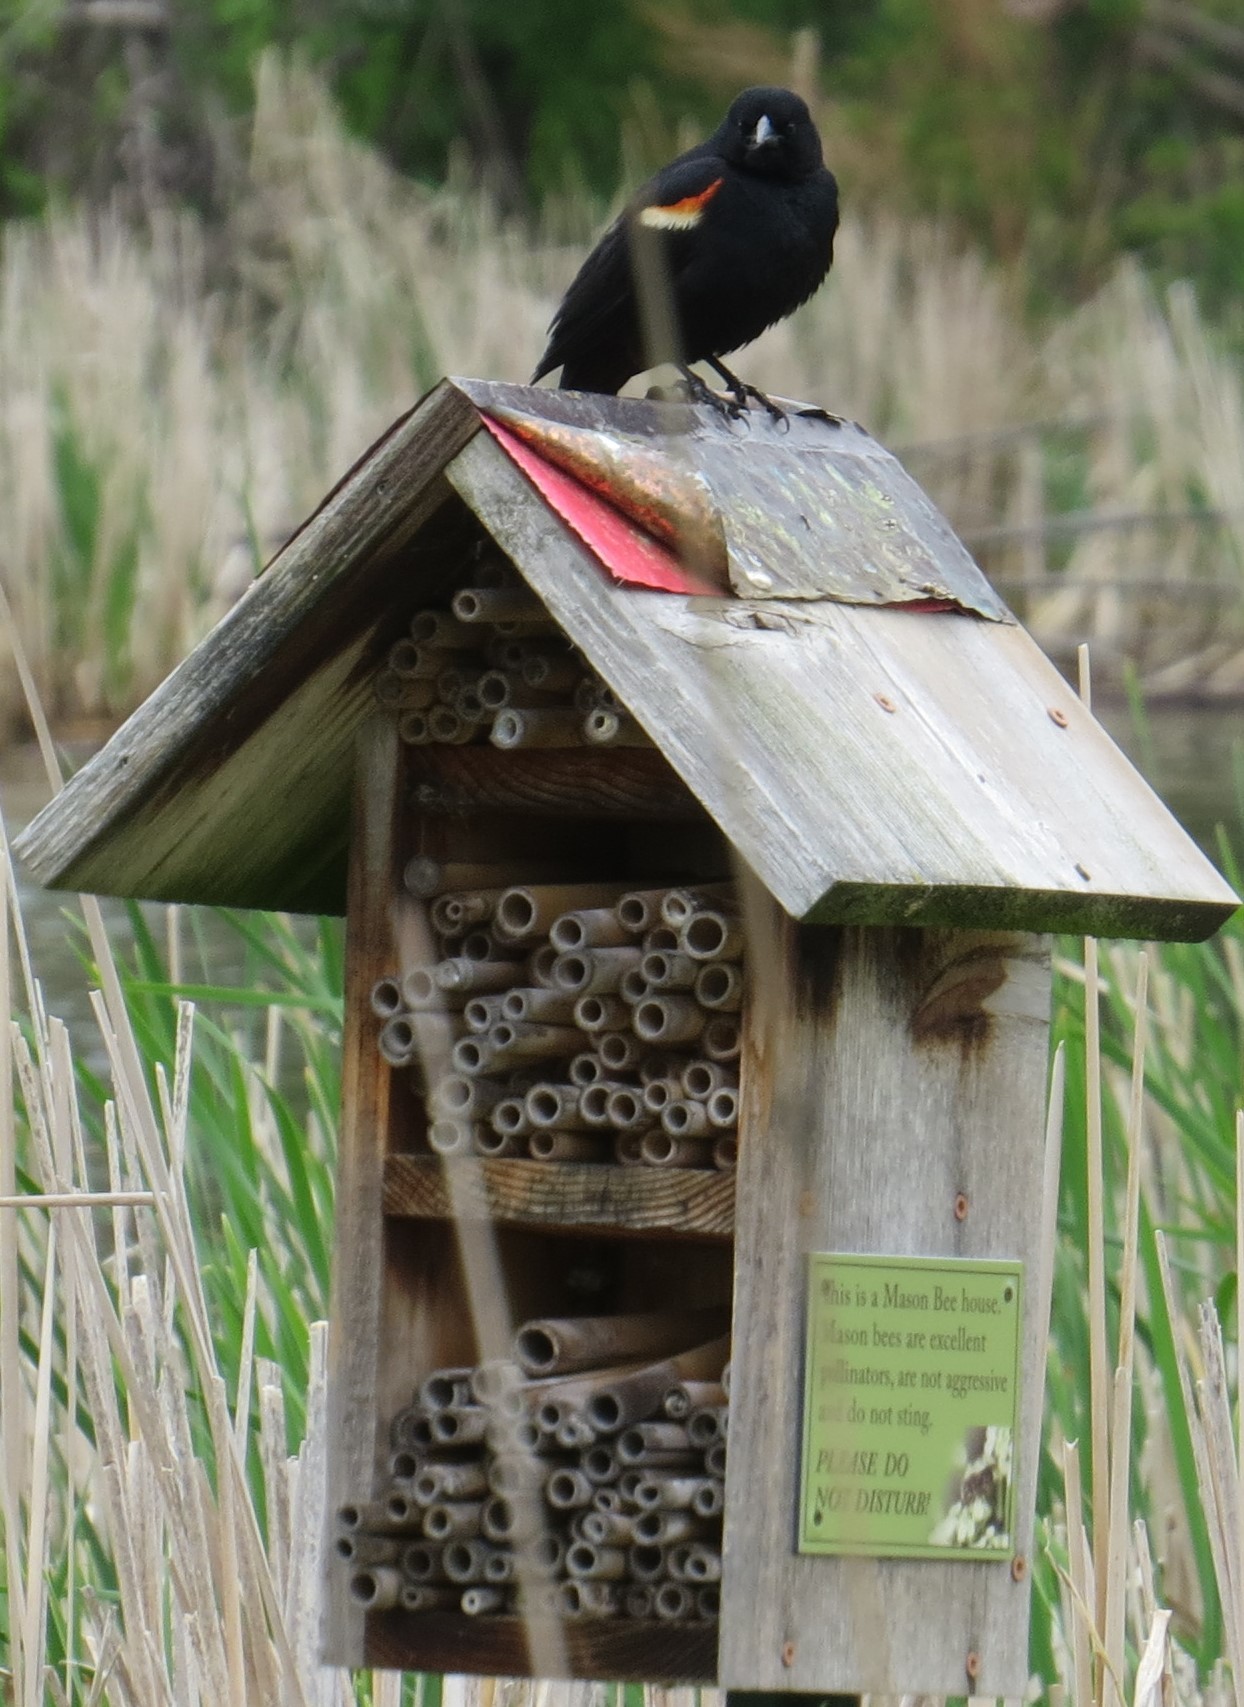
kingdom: Animalia
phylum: Chordata
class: Aves
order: Passeriformes
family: Icteridae
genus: Agelaius
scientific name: Agelaius phoeniceus
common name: Red-winged blackbird
